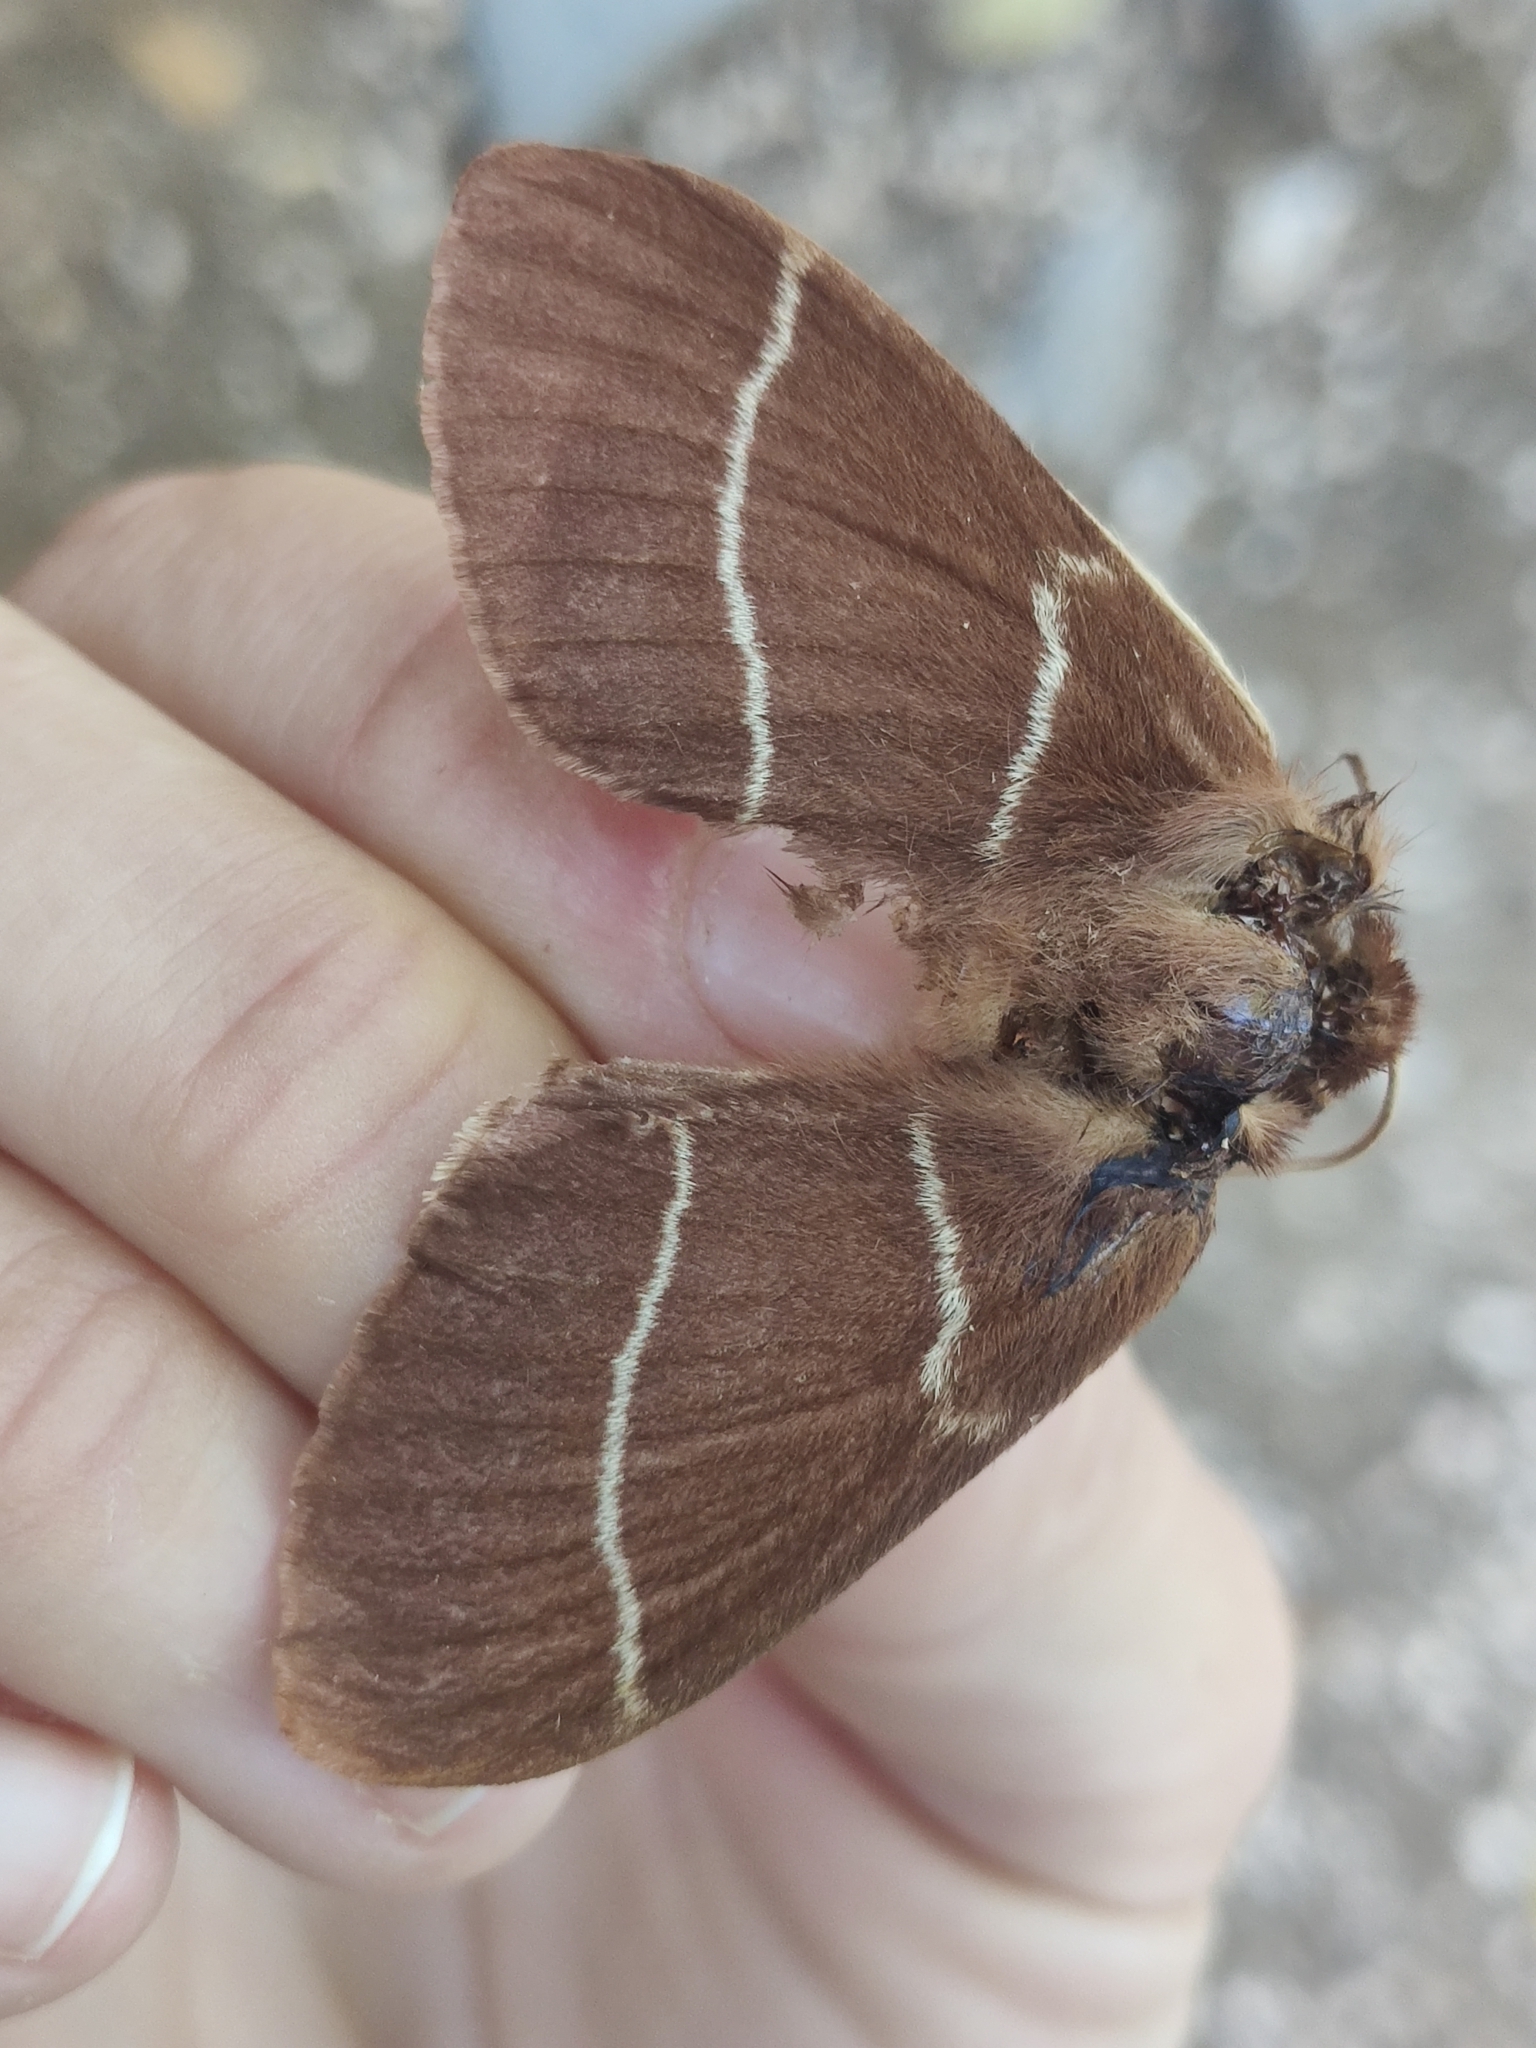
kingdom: Animalia
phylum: Arthropoda
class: Insecta
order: Lepidoptera
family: Lasiocampidae
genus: Macrothylacia
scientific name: Macrothylacia digramma
